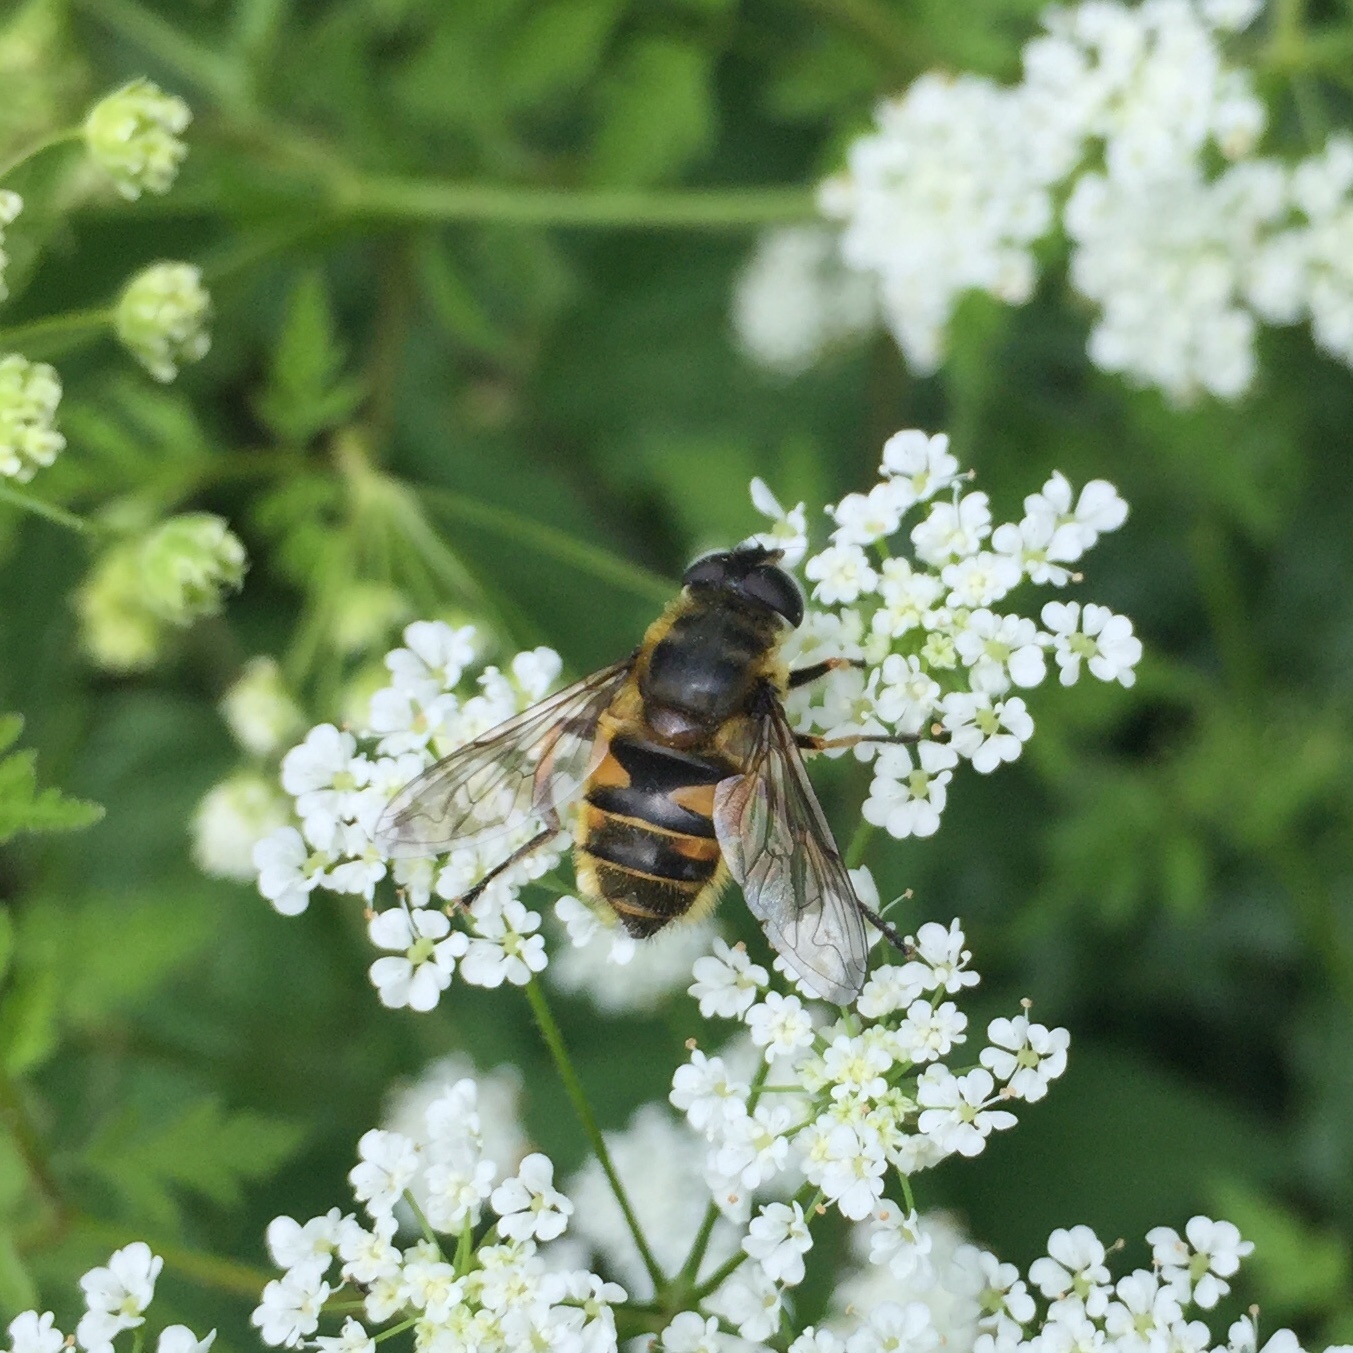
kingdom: Animalia
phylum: Arthropoda
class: Insecta
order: Diptera
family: Syrphidae
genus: Myathropa
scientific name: Myathropa florea
